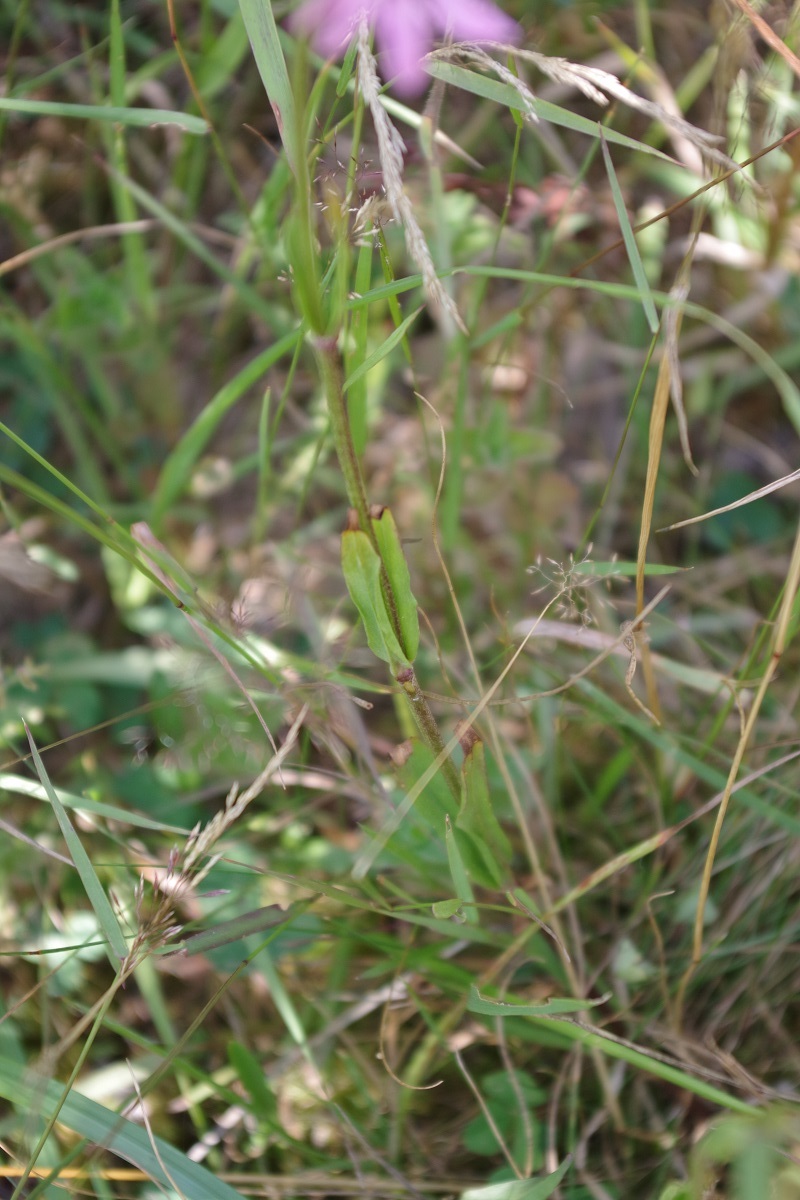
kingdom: Plantae
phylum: Tracheophyta
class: Magnoliopsida
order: Caryophyllales
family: Caryophyllaceae
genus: Silene
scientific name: Silene flos-cuculi
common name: Ragged-robin
